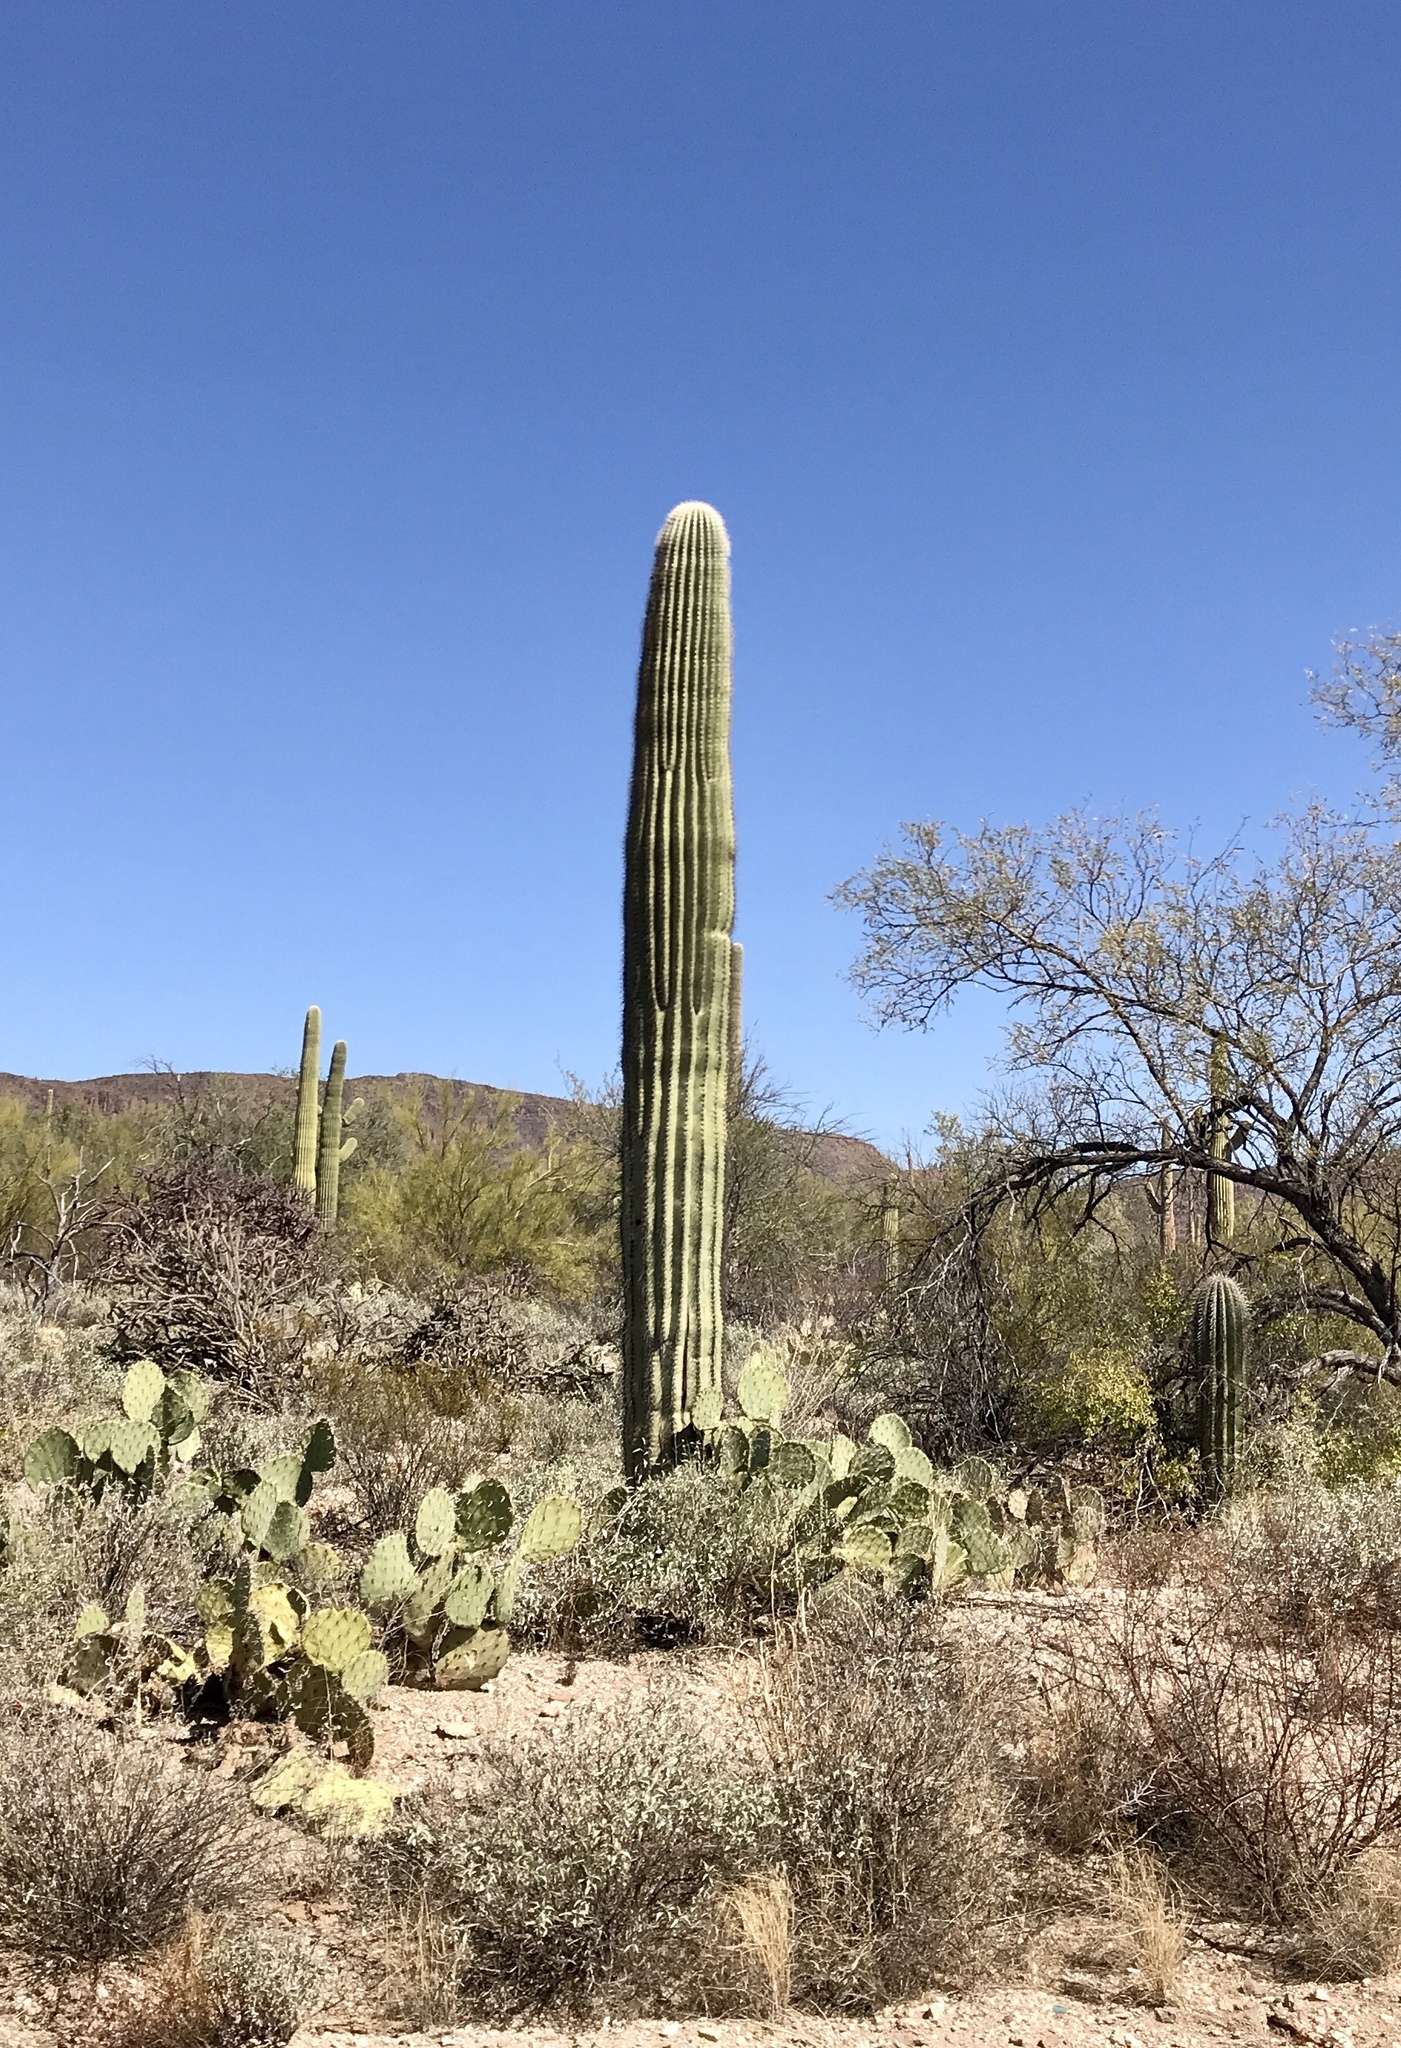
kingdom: Plantae
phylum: Tracheophyta
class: Magnoliopsida
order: Caryophyllales
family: Cactaceae
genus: Carnegiea
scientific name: Carnegiea gigantea
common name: Saguaro
